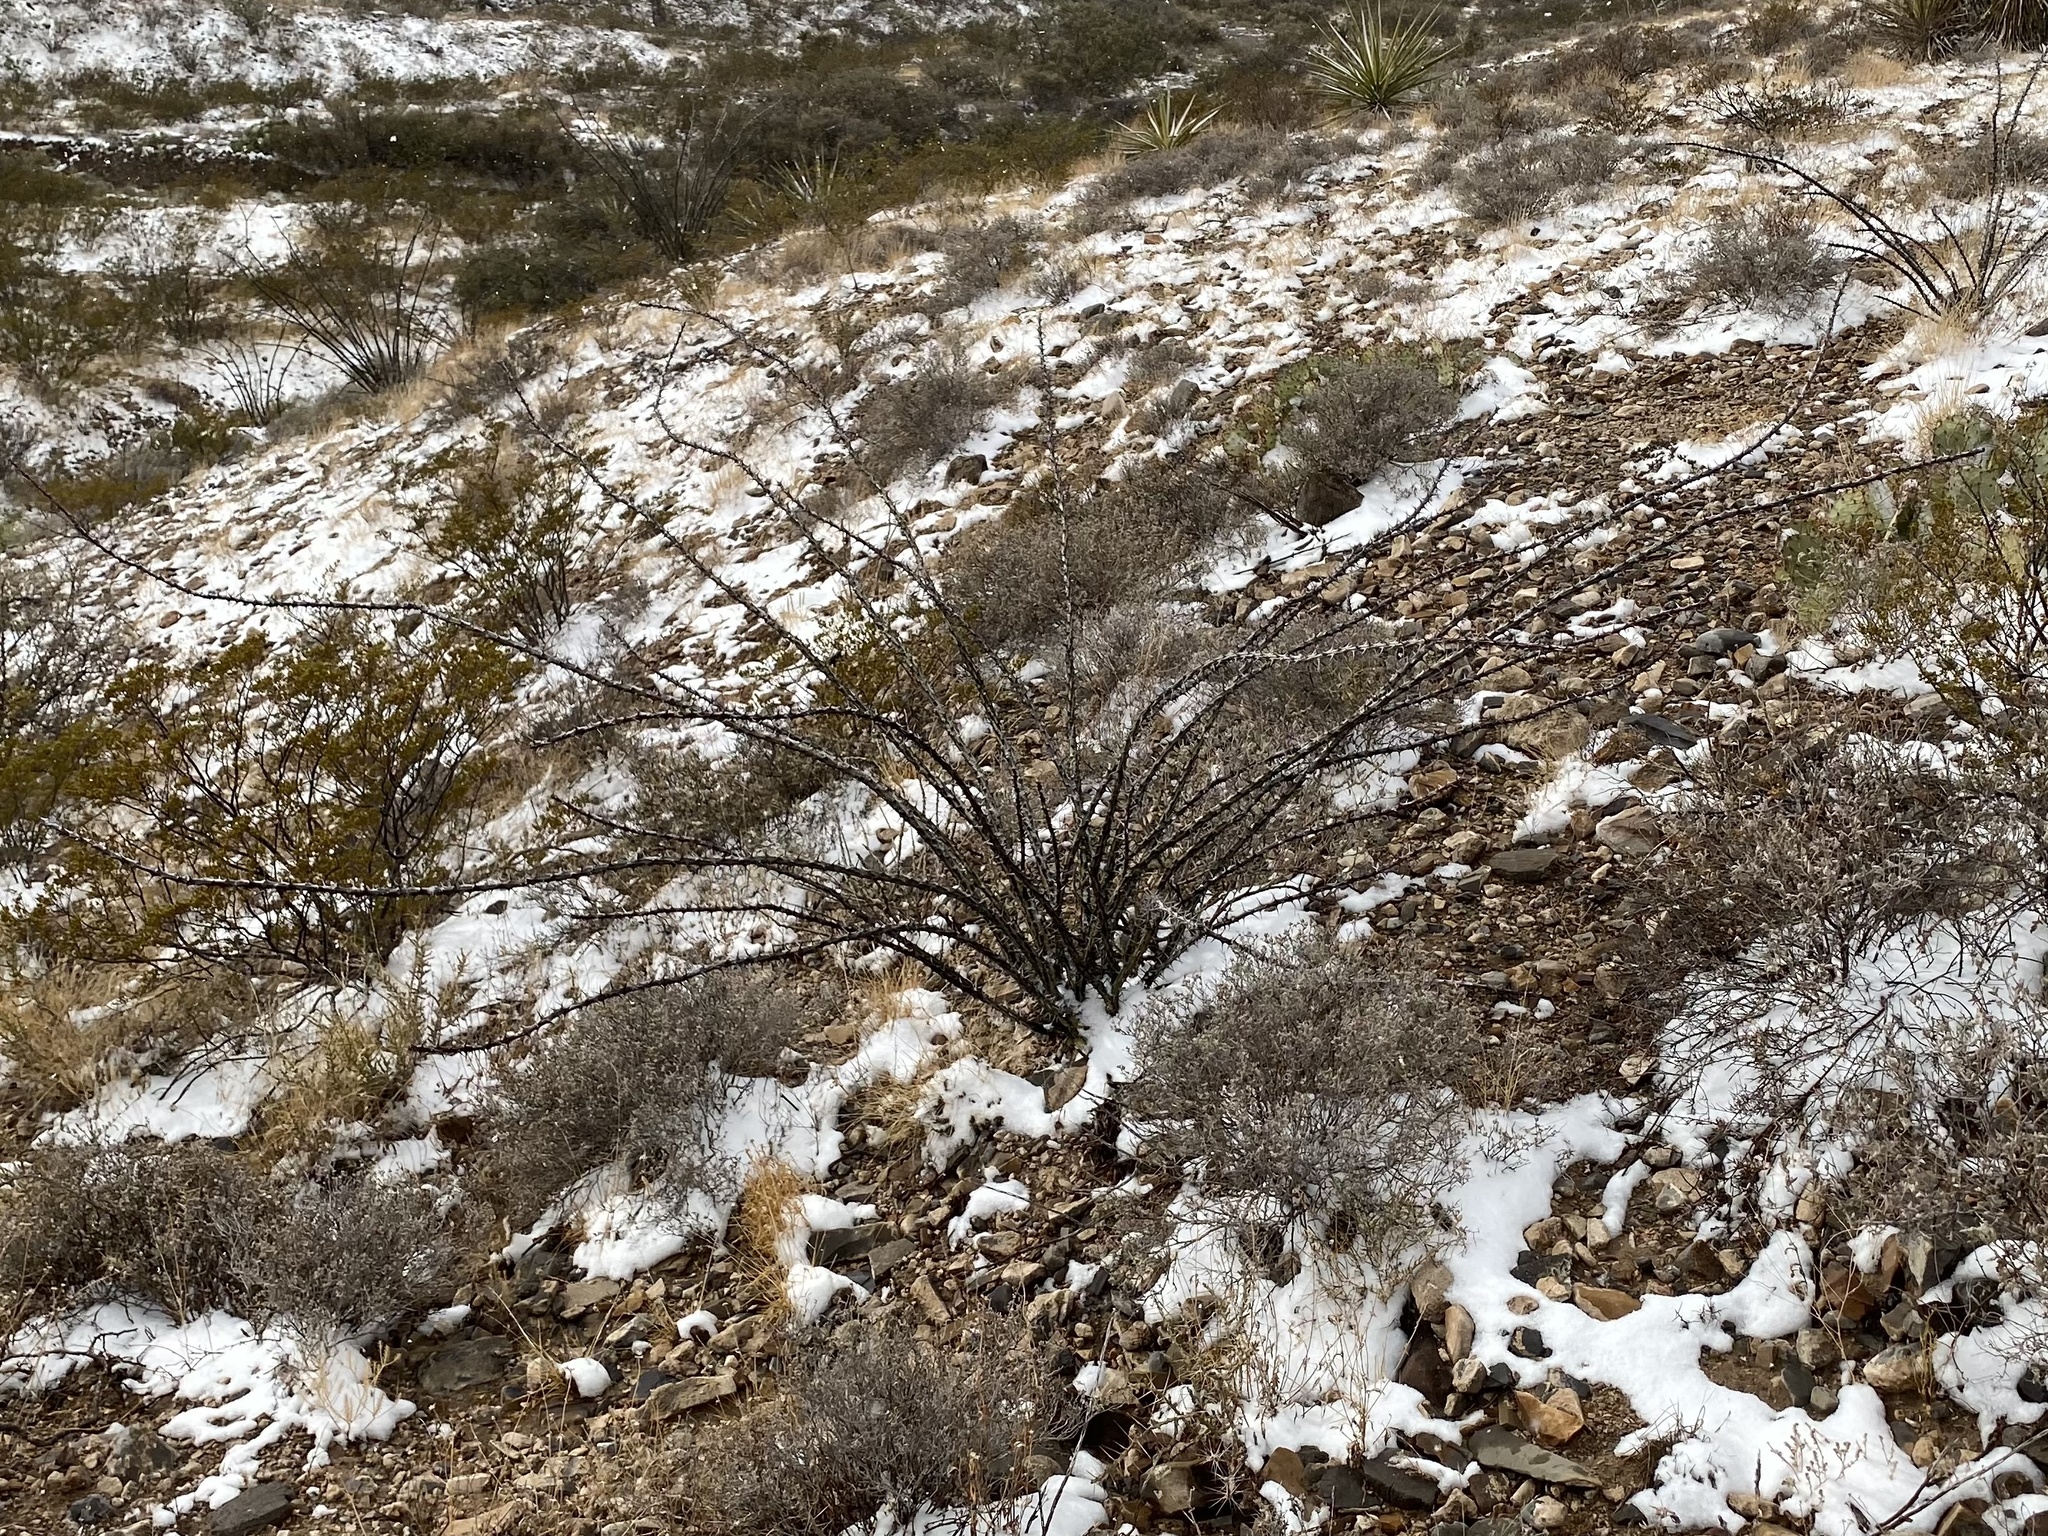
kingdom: Plantae
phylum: Tracheophyta
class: Magnoliopsida
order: Ericales
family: Fouquieriaceae
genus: Fouquieria
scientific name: Fouquieria splendens
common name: Vine-cactus
